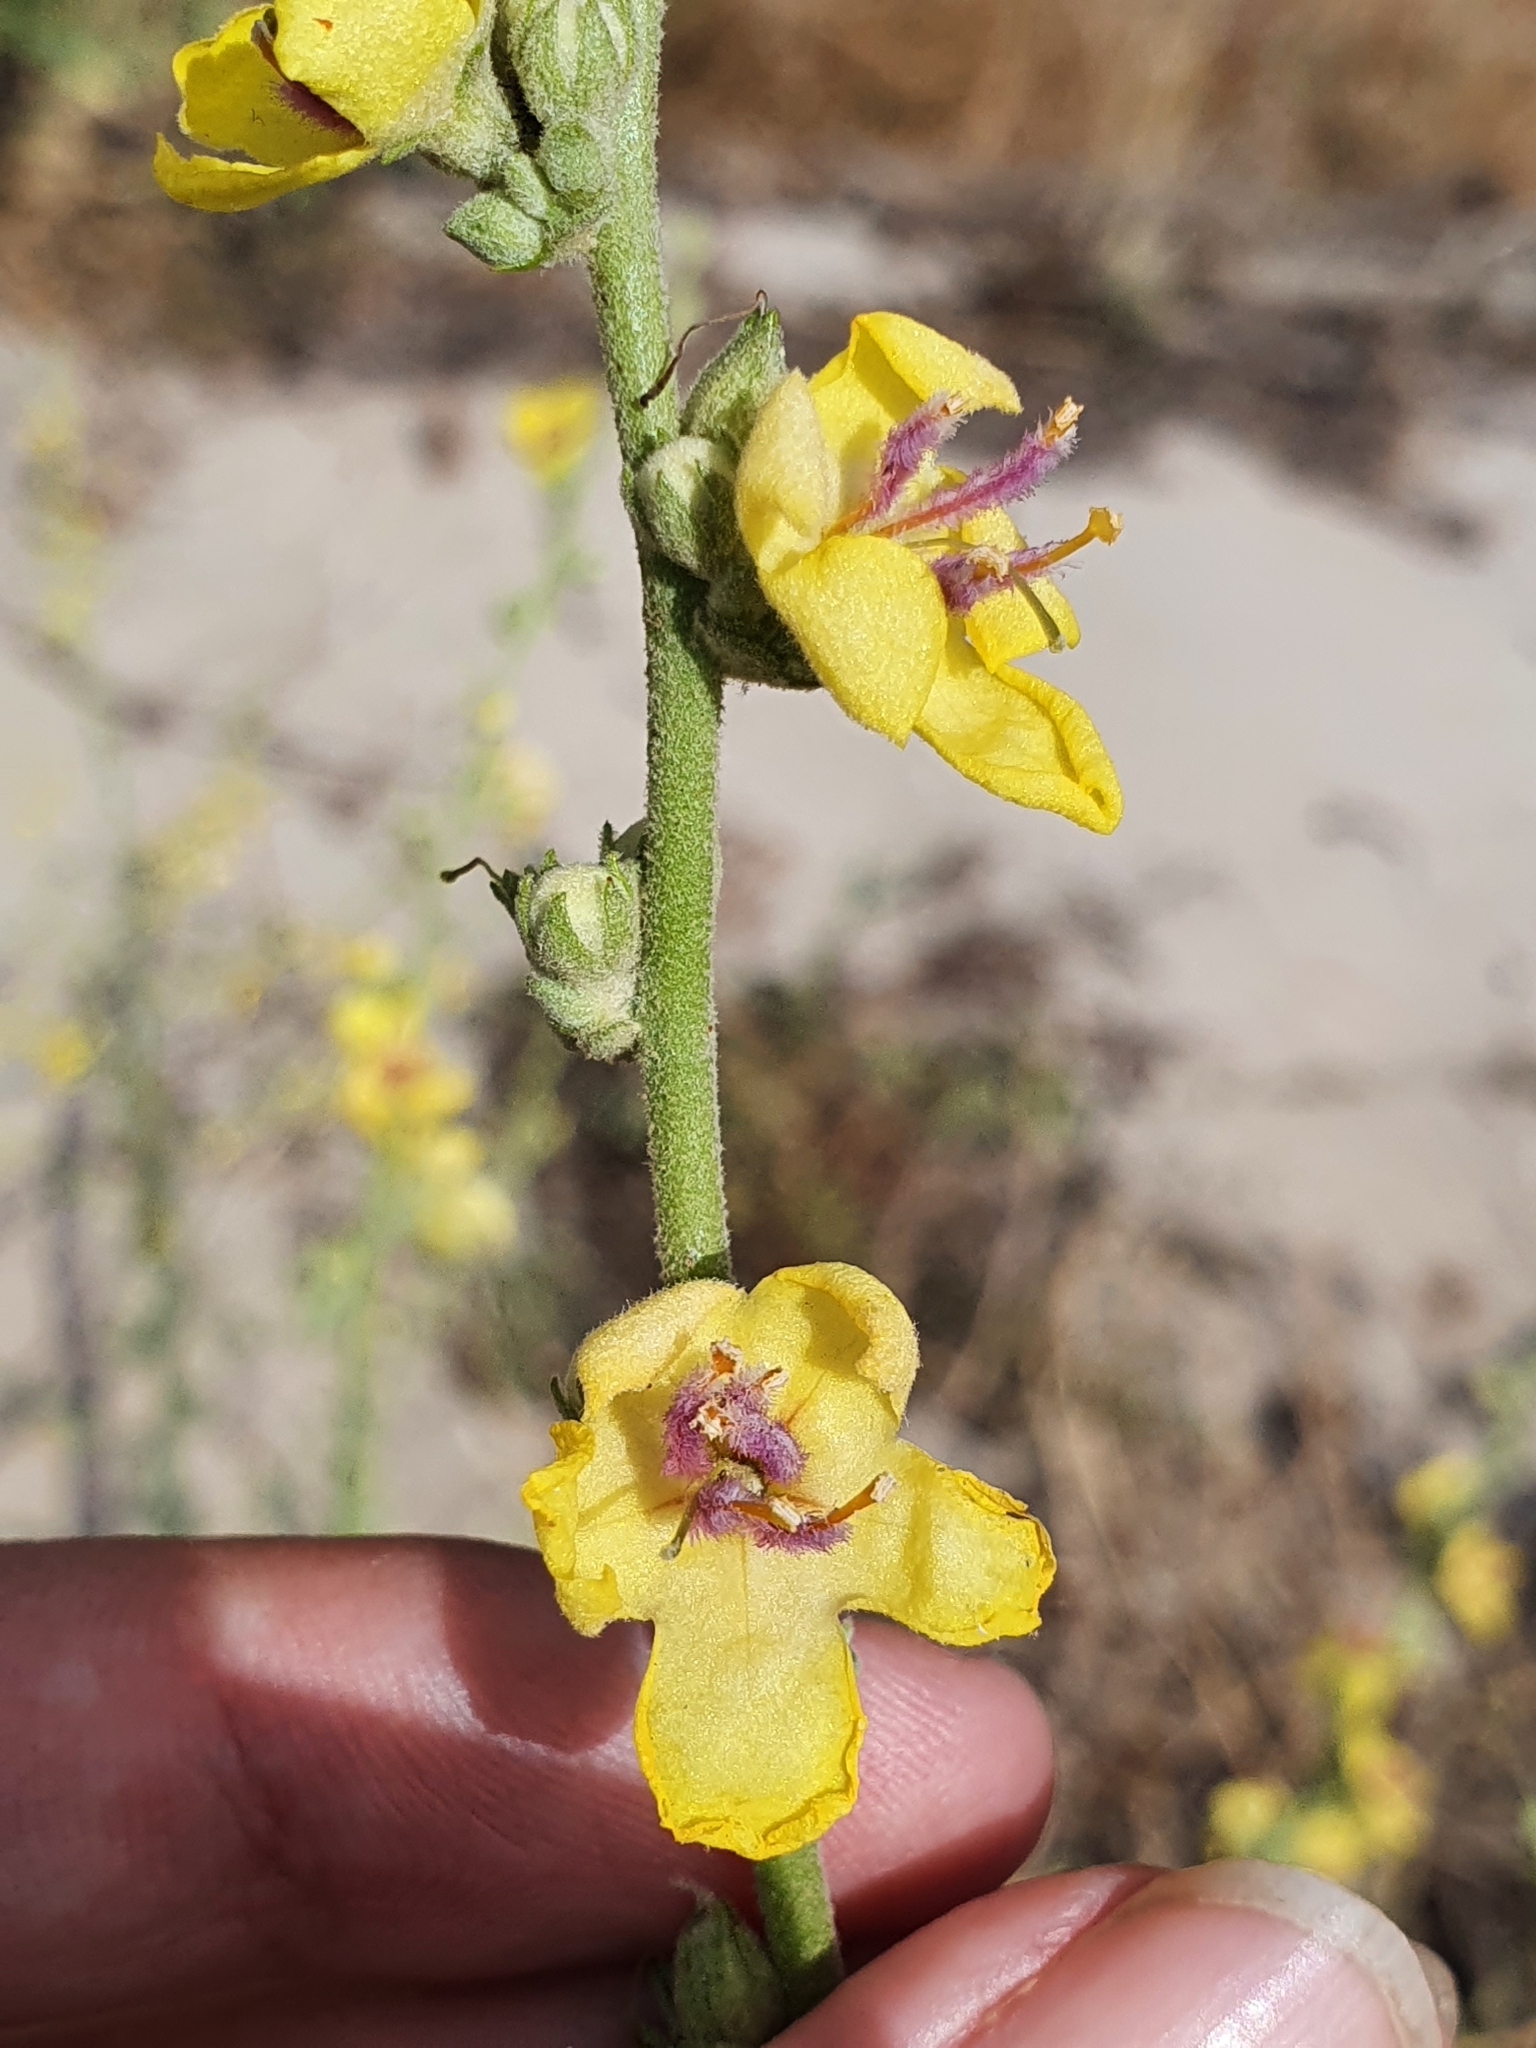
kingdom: Plantae
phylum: Tracheophyta
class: Magnoliopsida
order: Lamiales
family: Scrophulariaceae
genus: Verbascum
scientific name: Verbascum sinuatum
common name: Wavyleaf mullein
